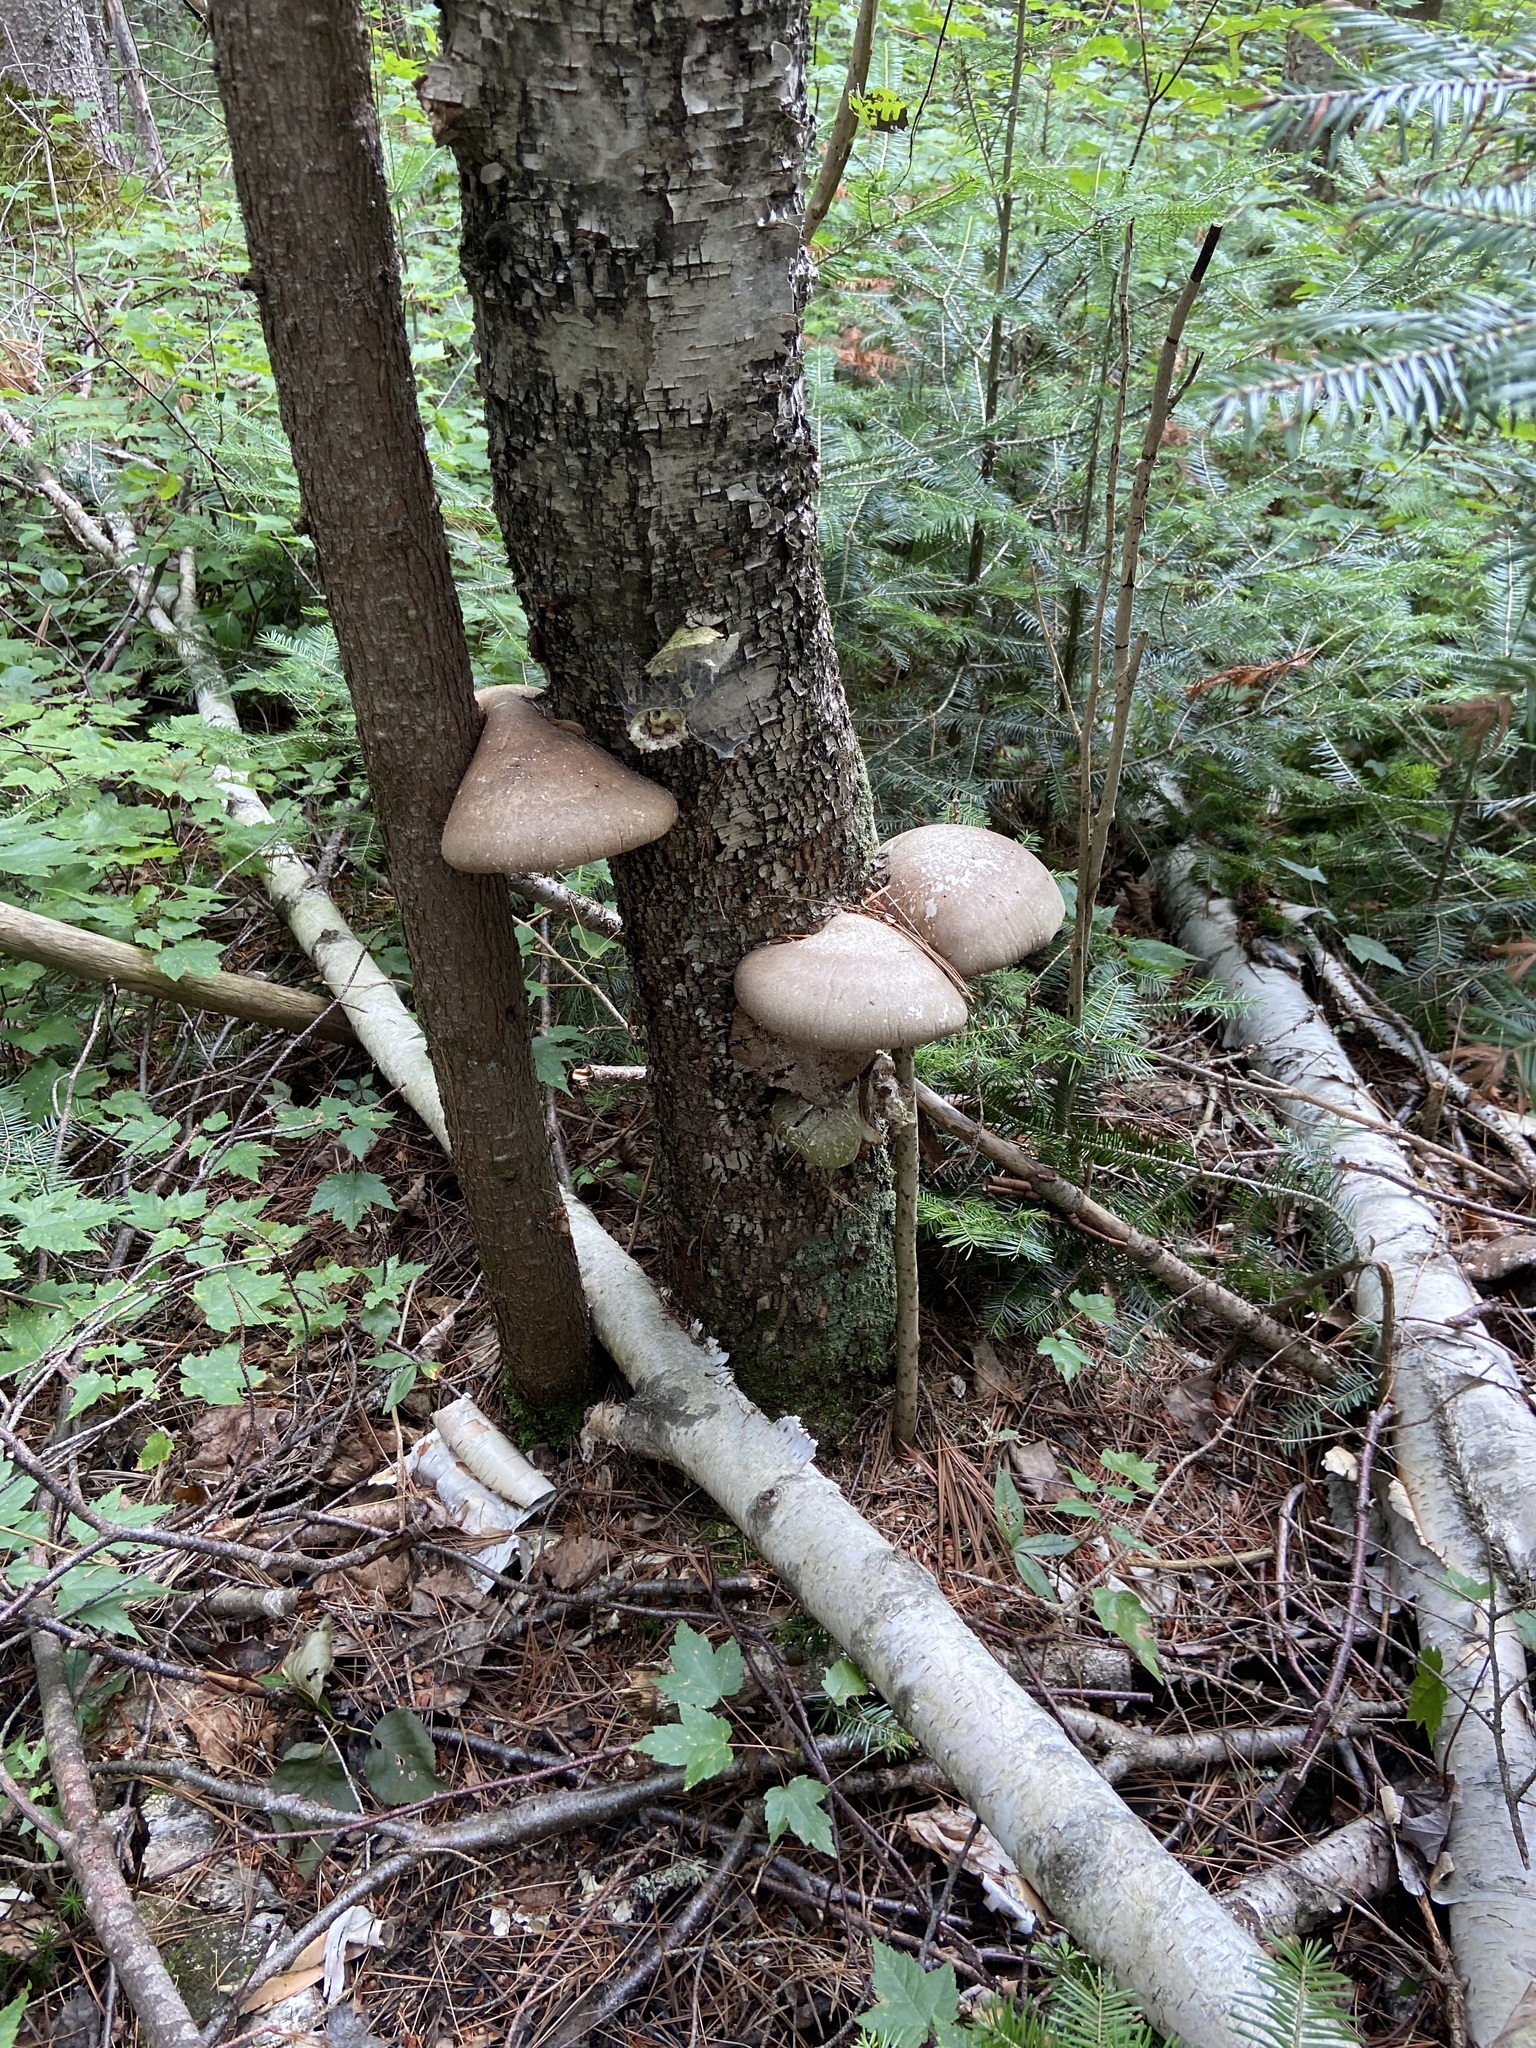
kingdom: Fungi
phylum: Basidiomycota
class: Agaricomycetes
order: Polyporales
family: Fomitopsidaceae
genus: Fomitopsis
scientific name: Fomitopsis betulina
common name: Birch polypore
